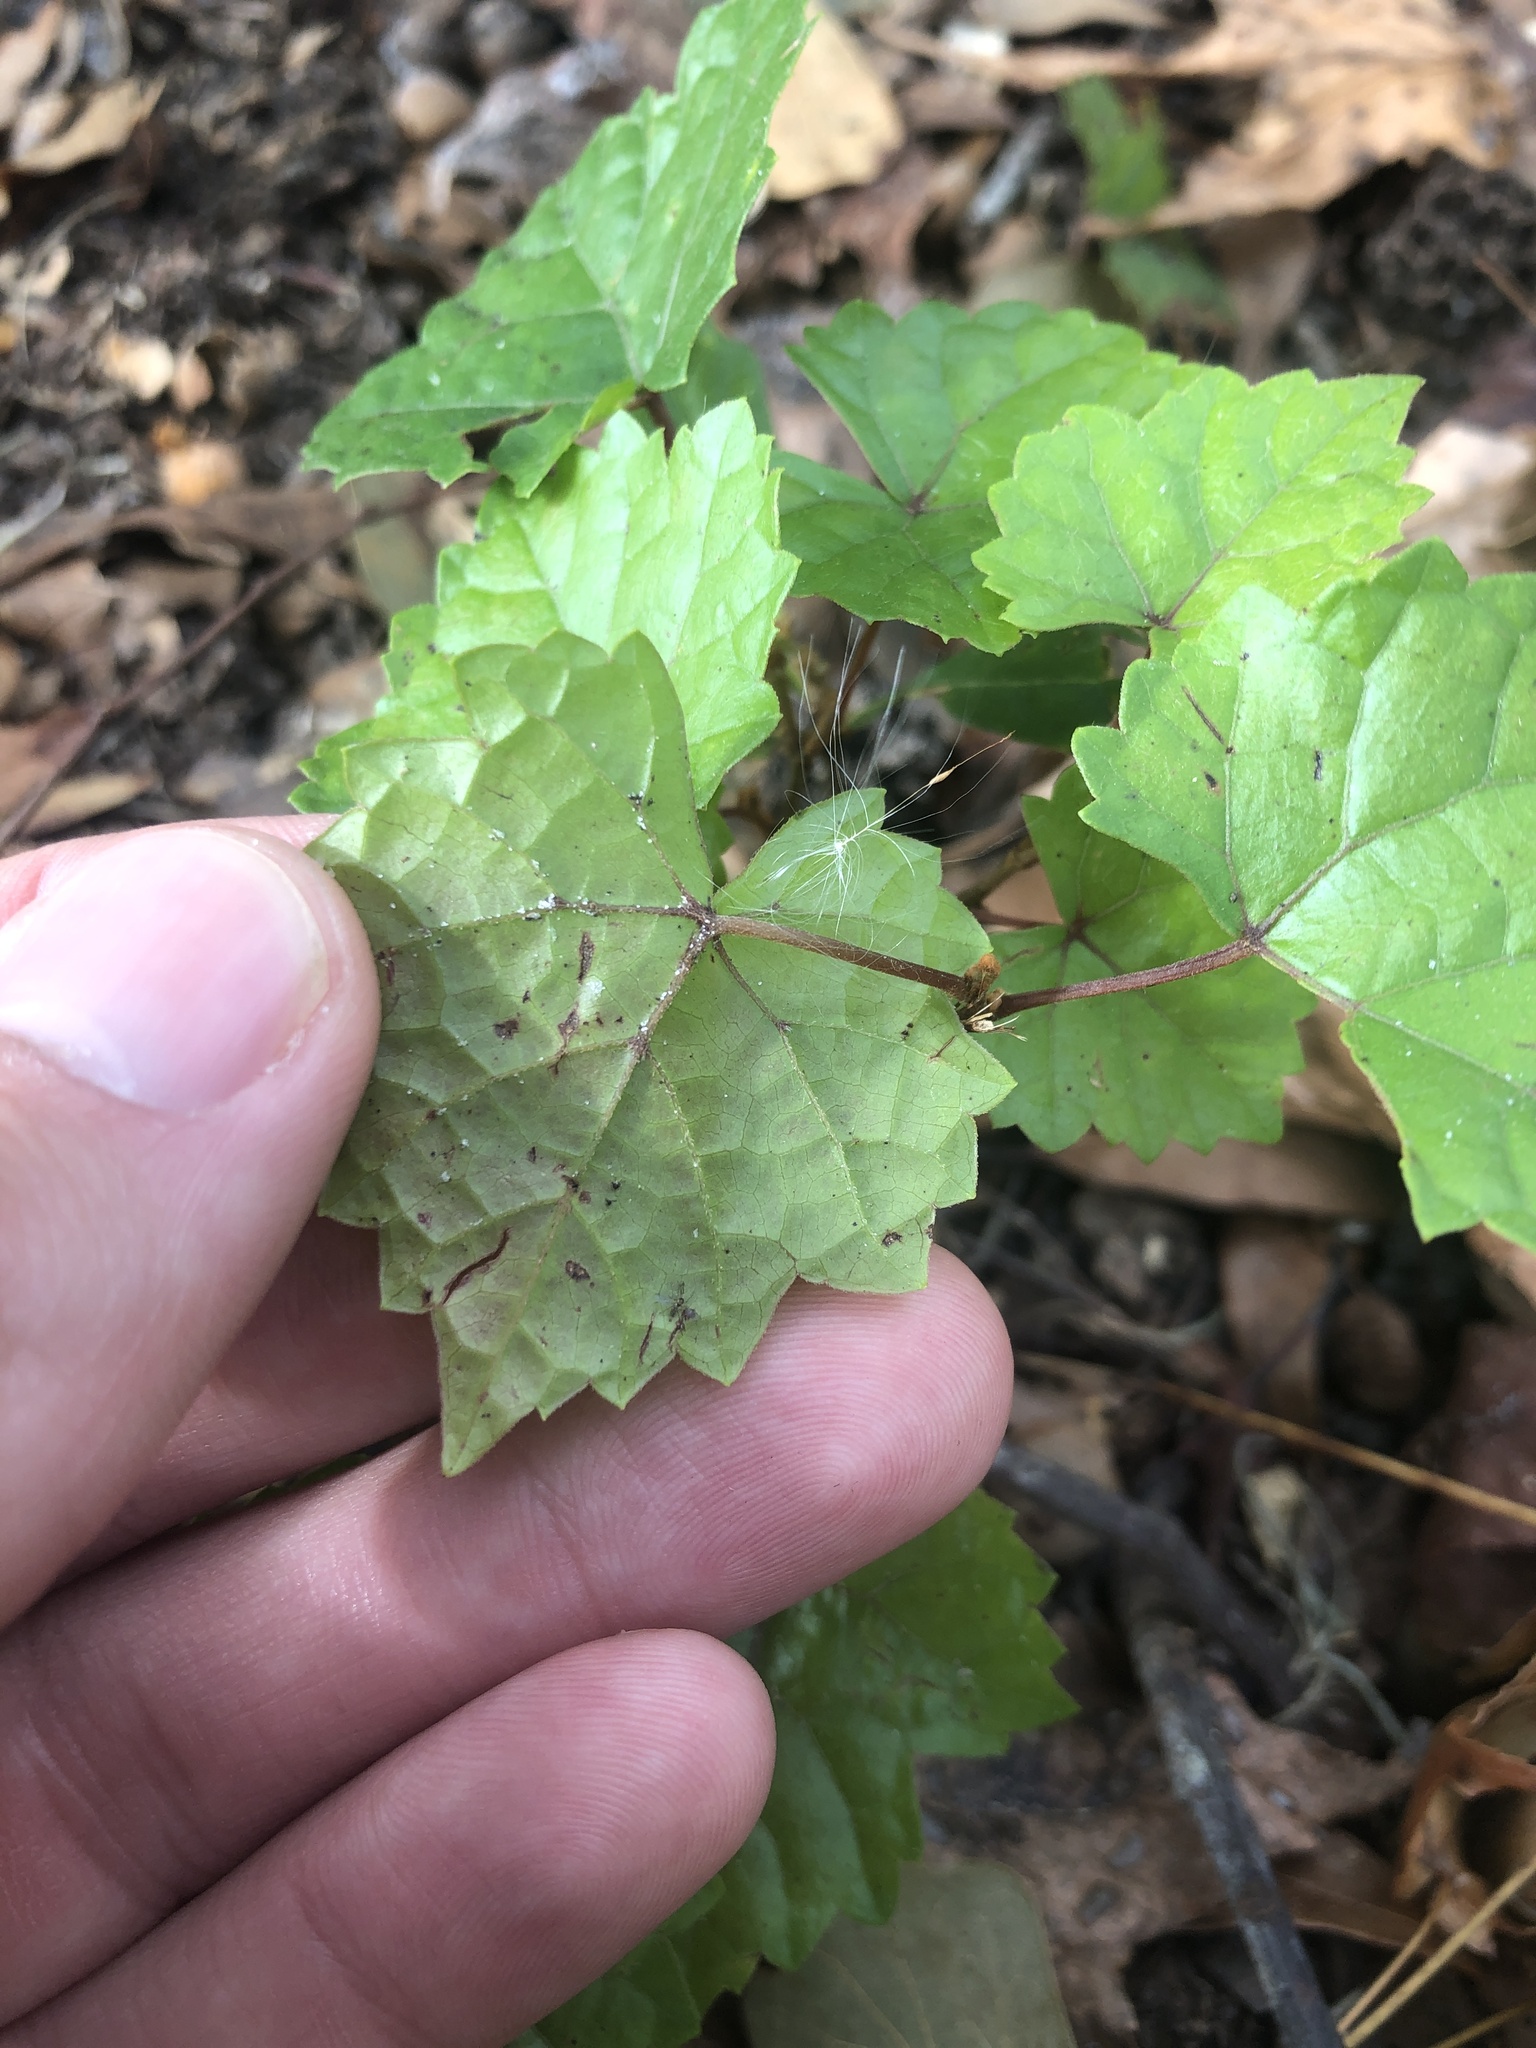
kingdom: Plantae
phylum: Tracheophyta
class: Magnoliopsida
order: Vitales
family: Vitaceae
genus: Vitis
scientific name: Vitis rotundifolia
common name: Muscadine grape
